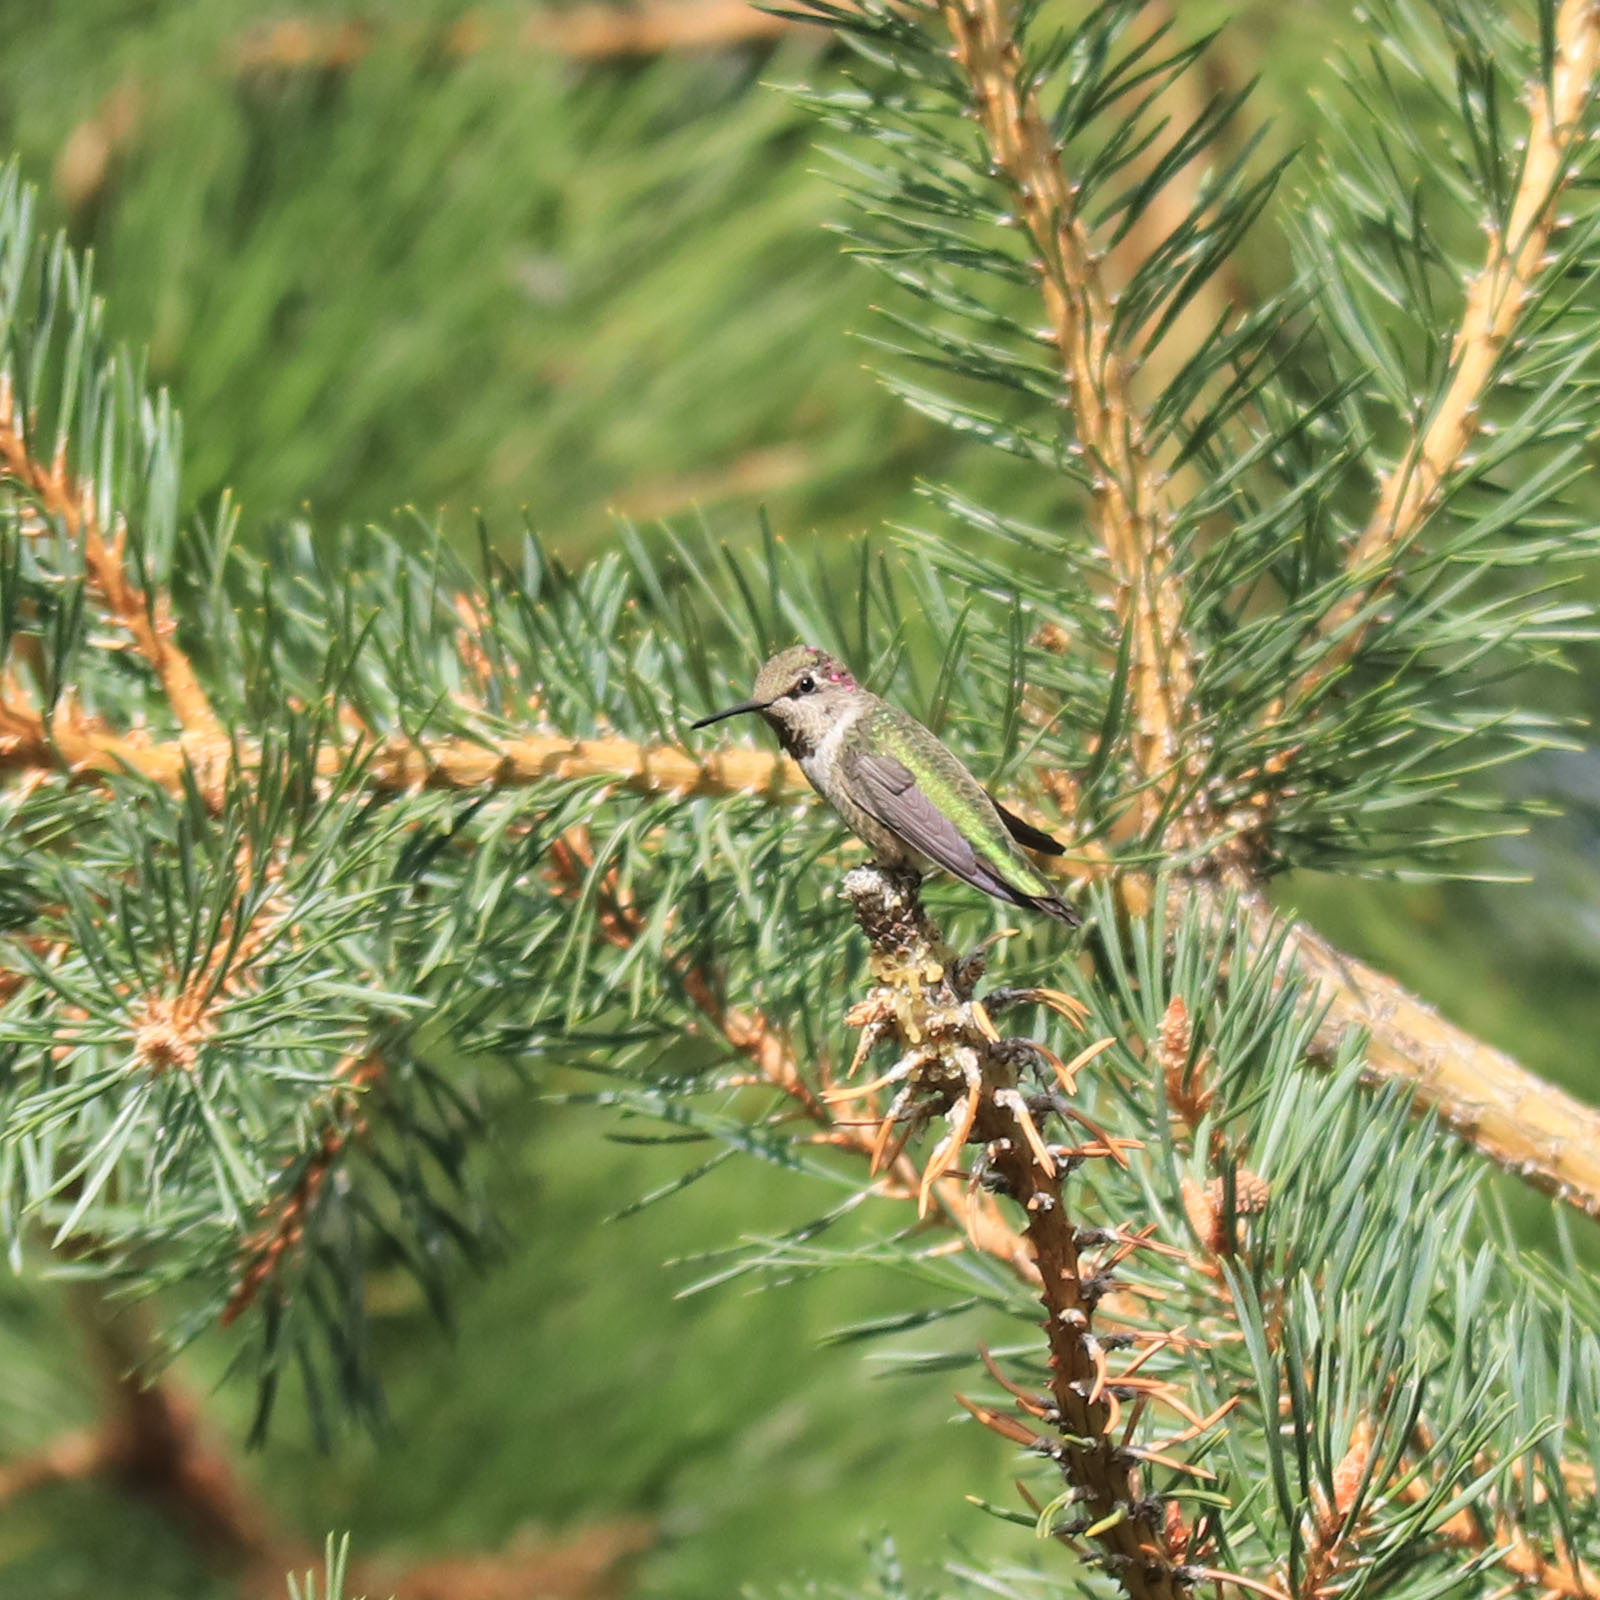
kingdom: Animalia
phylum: Chordata
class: Aves
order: Apodiformes
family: Trochilidae
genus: Calypte
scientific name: Calypte anna
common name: Anna's hummingbird
